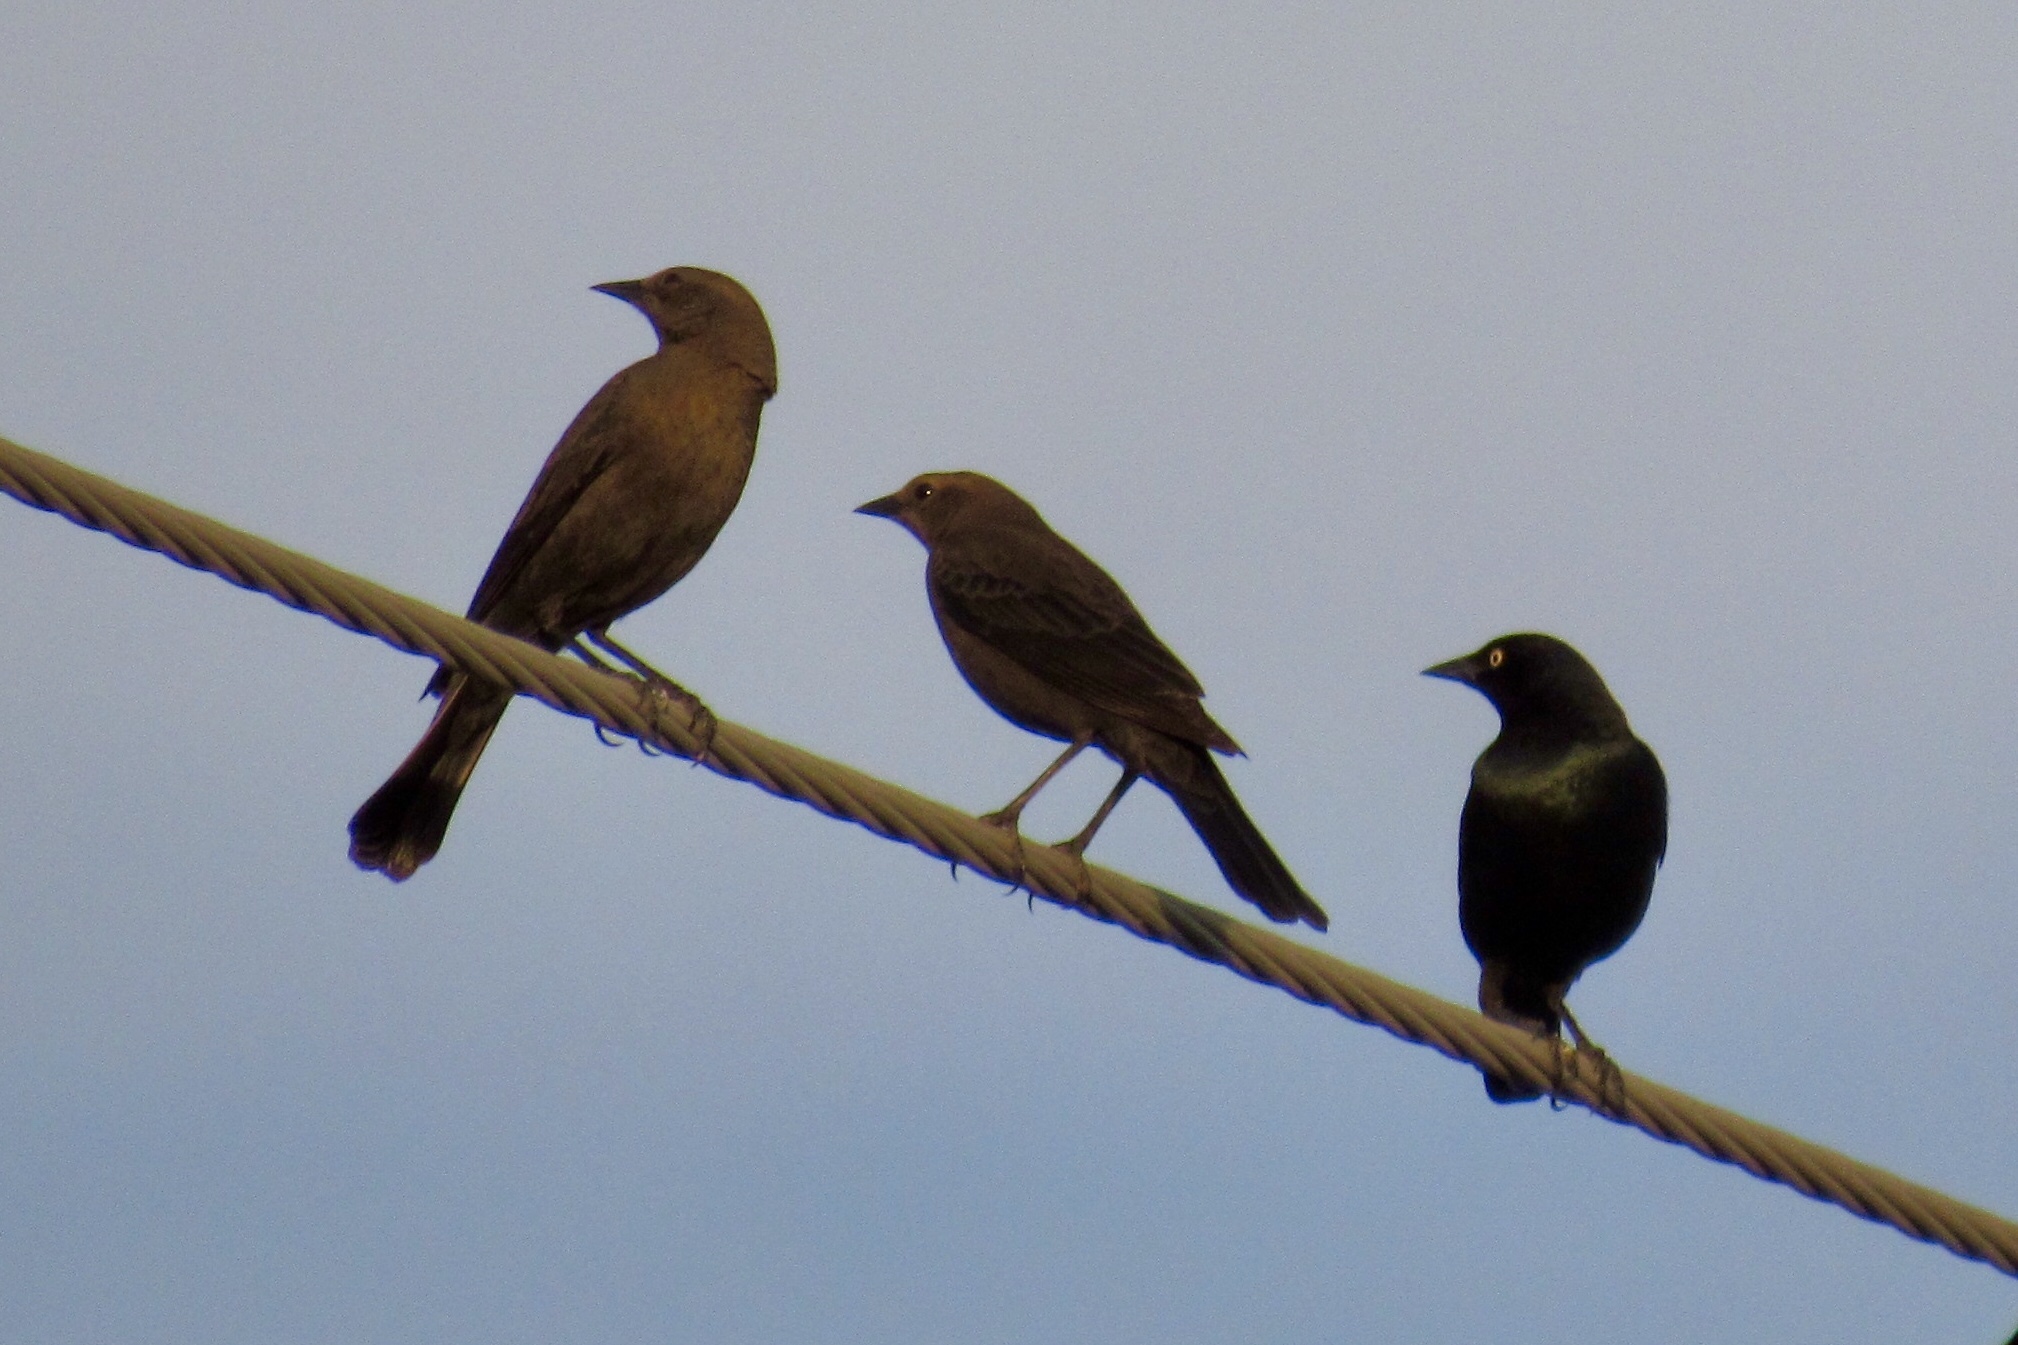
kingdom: Animalia
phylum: Chordata
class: Aves
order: Passeriformes
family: Icteridae
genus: Euphagus
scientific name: Euphagus cyanocephalus
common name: Brewer's blackbird
